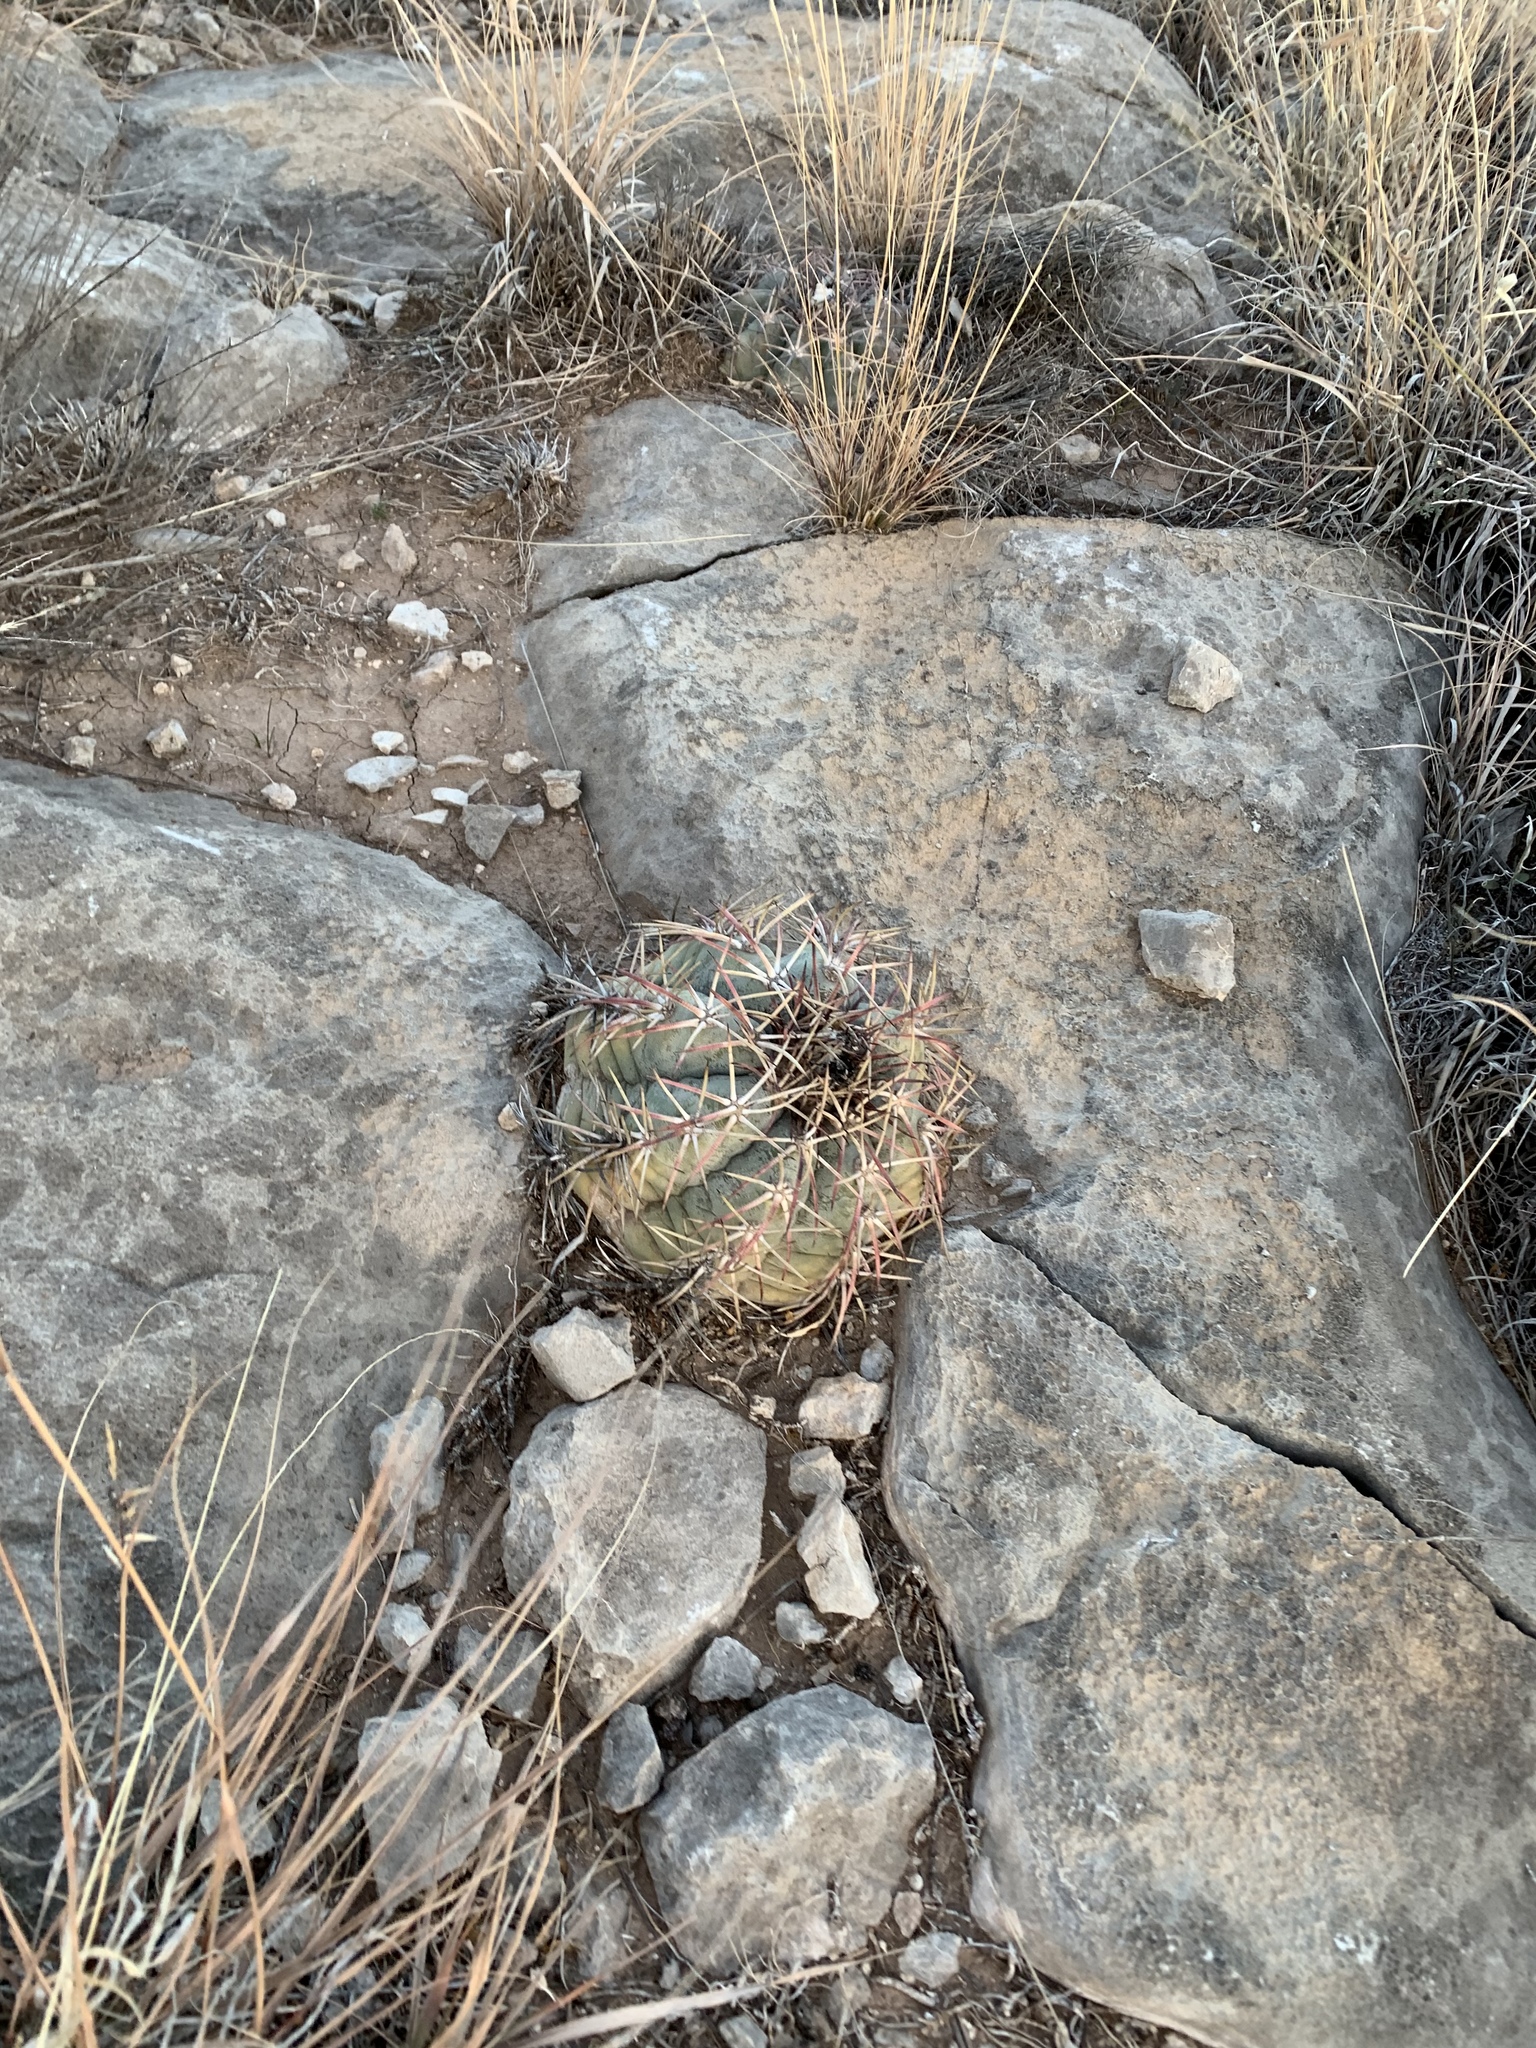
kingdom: Plantae
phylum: Tracheophyta
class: Magnoliopsida
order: Caryophyllales
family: Cactaceae
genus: Echinocactus
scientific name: Echinocactus horizonthalonius
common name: Devilshead
